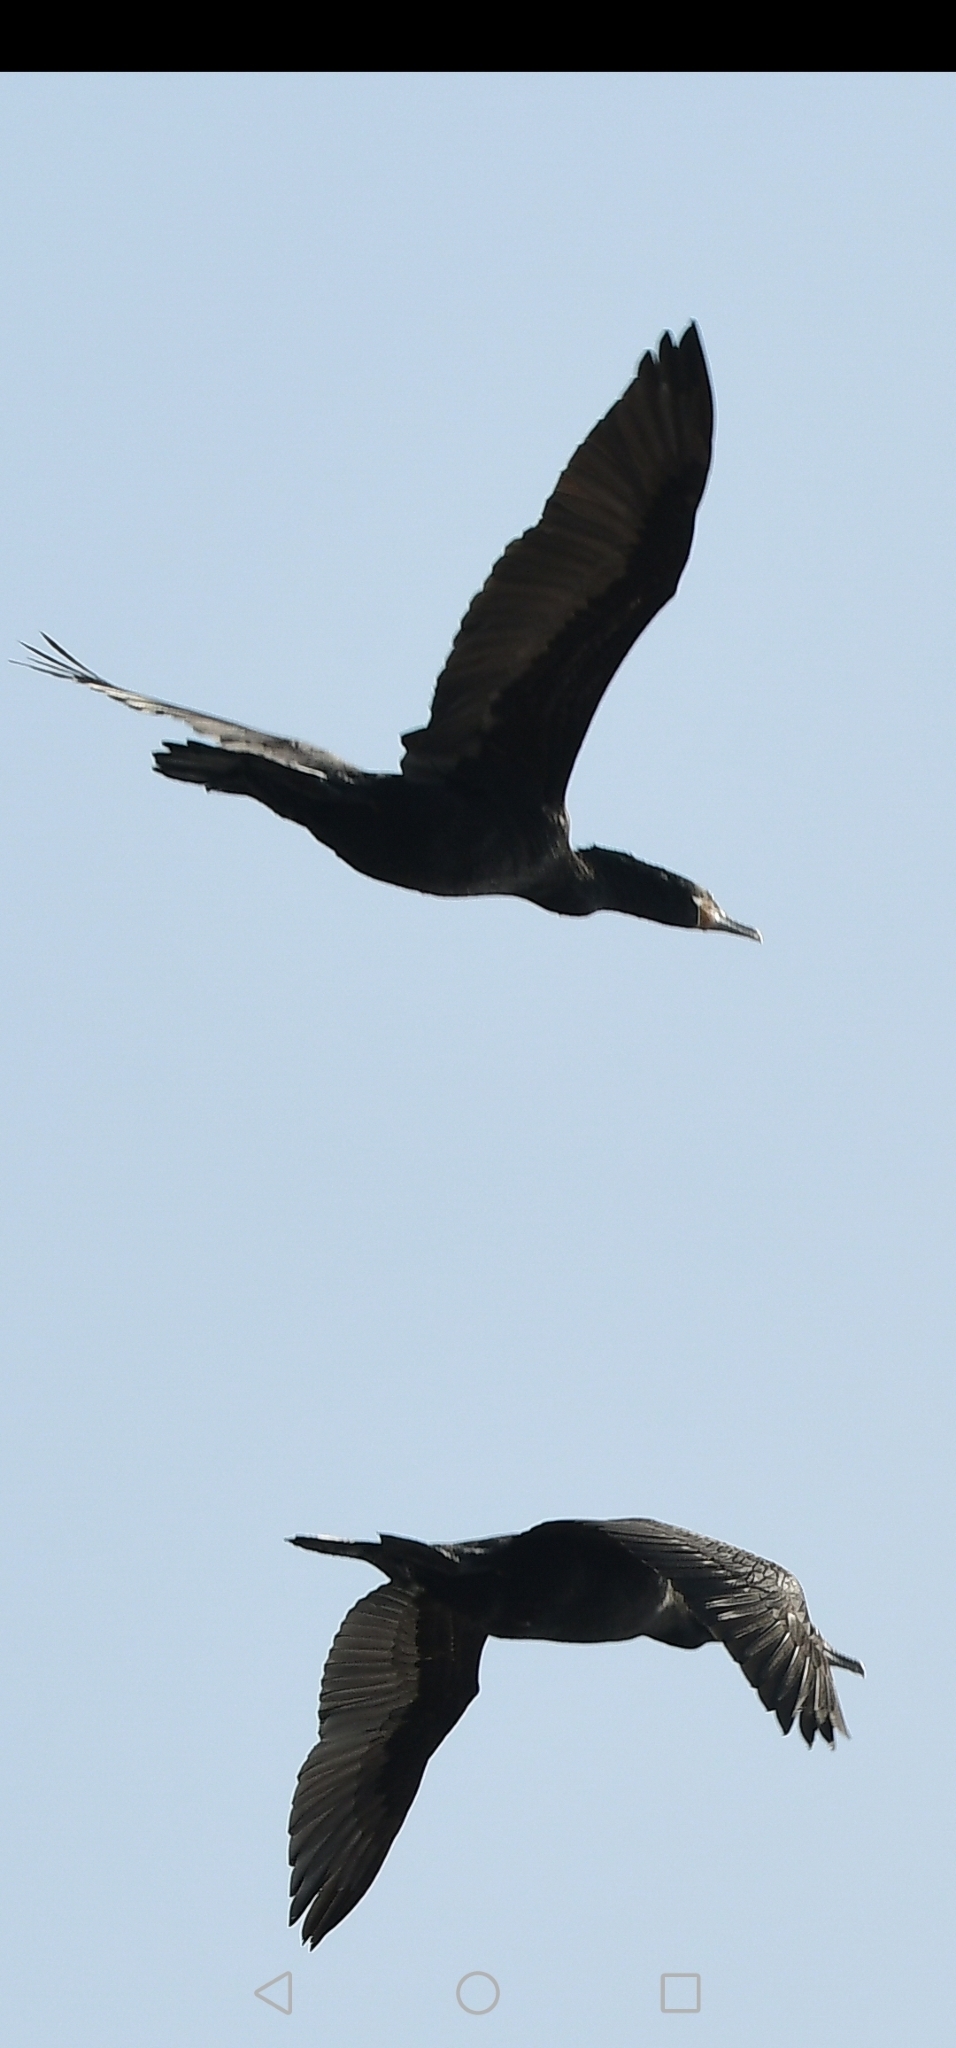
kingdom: Animalia
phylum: Chordata
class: Aves
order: Suliformes
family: Phalacrocoracidae
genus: Phalacrocorax
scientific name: Phalacrocorax brasilianus
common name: Neotropic cormorant
